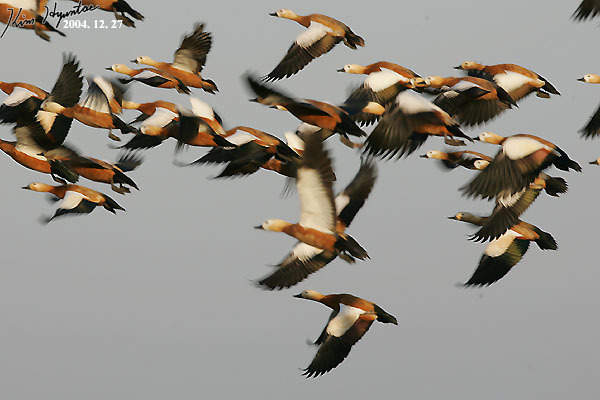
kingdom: Animalia
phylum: Chordata
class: Aves
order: Anseriformes
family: Anatidae
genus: Tadorna
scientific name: Tadorna ferruginea
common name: Ruddy shelduck
